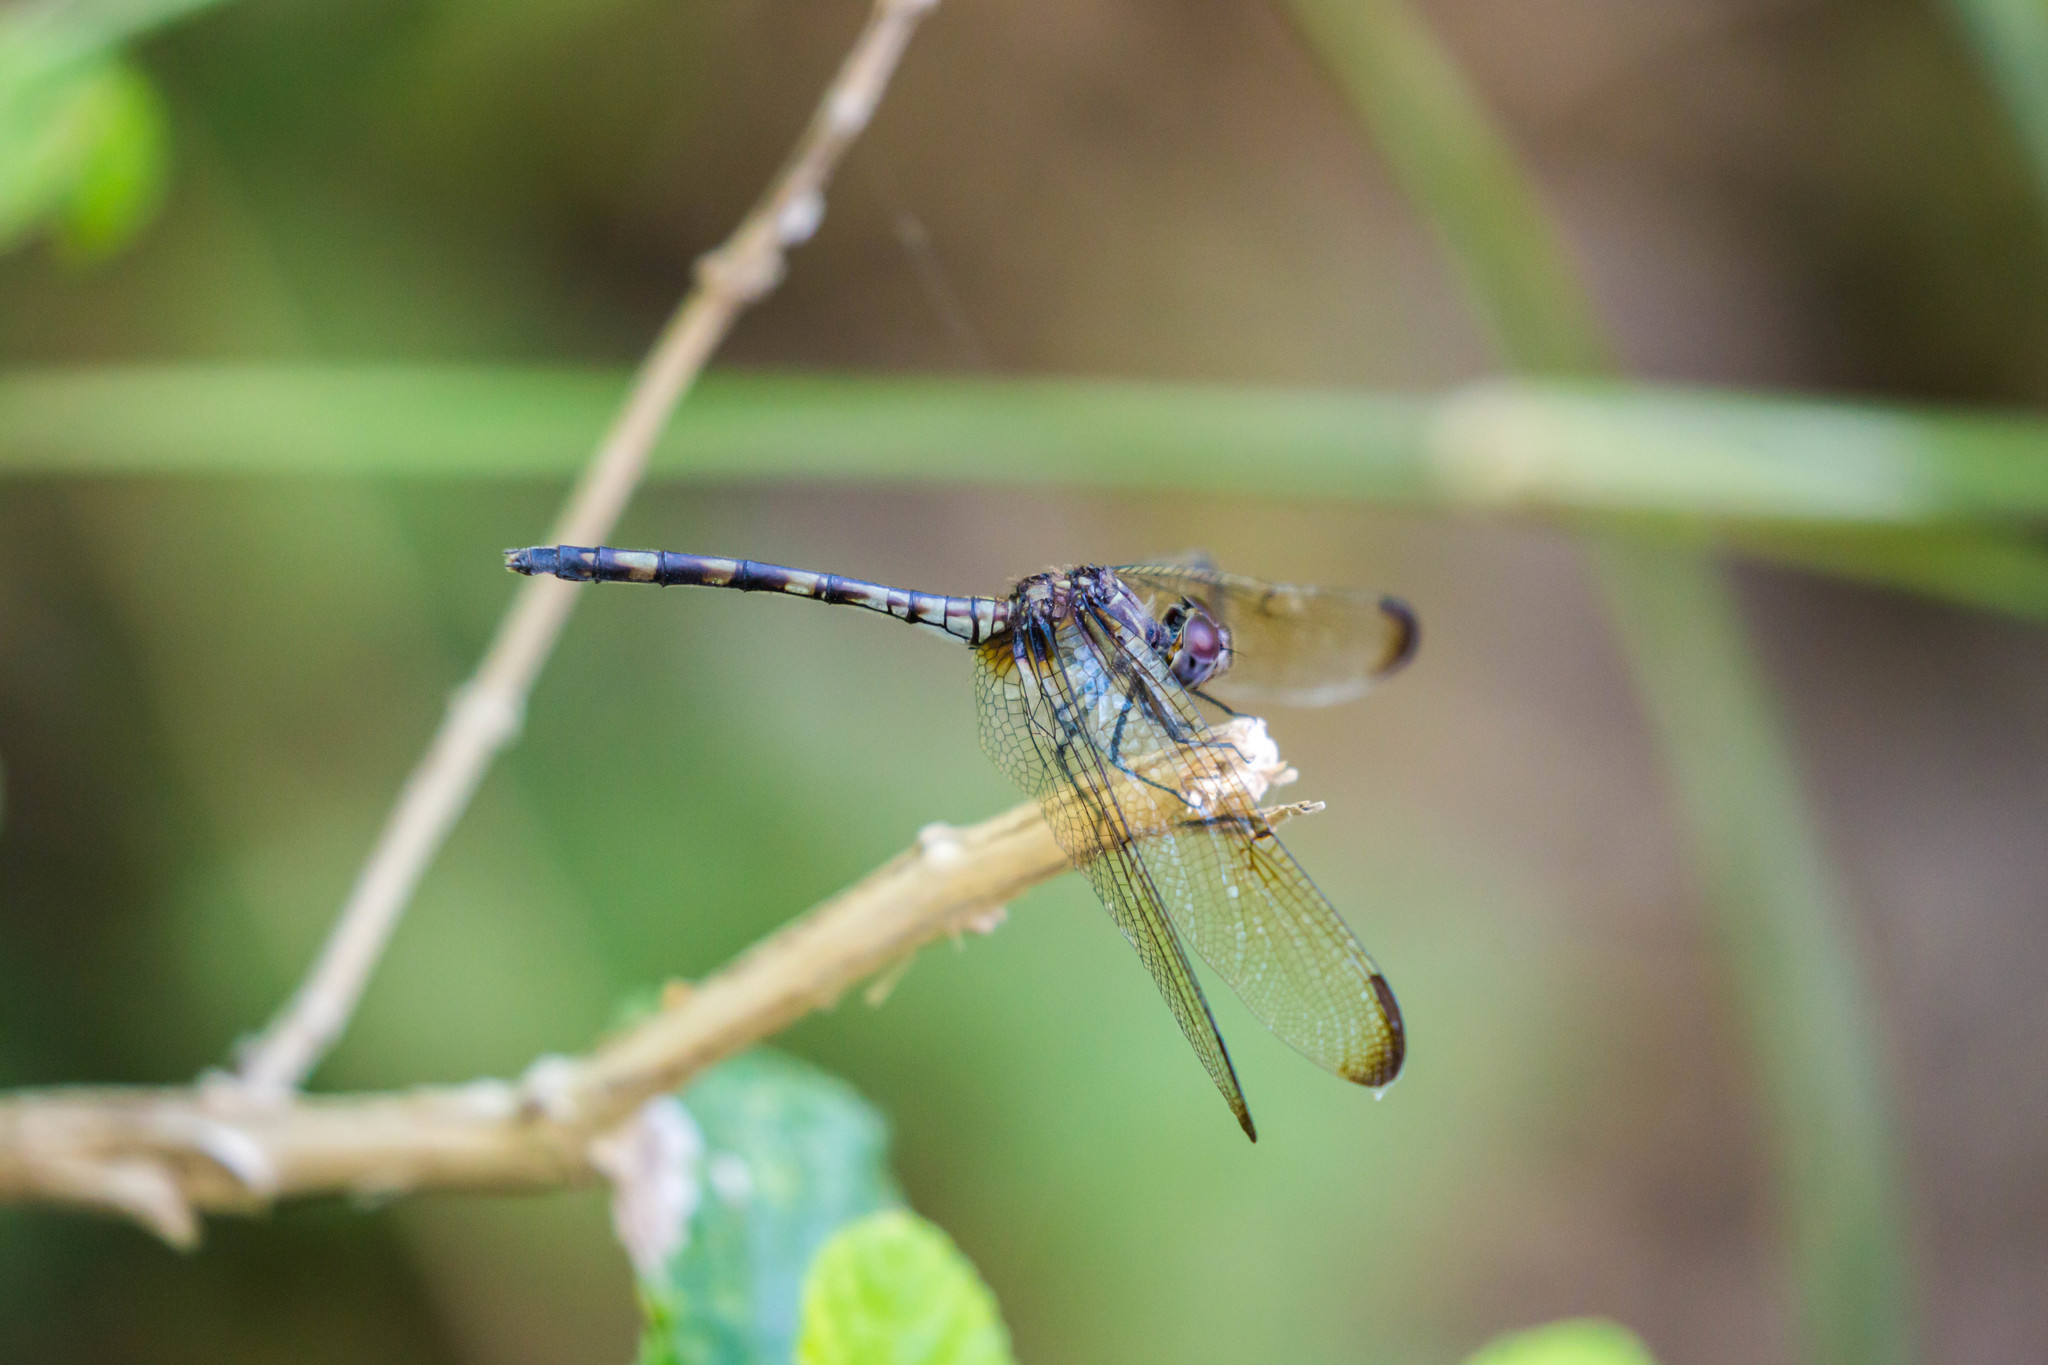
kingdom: Animalia
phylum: Arthropoda
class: Insecta
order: Odonata
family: Libellulidae
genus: Dythemis
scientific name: Dythemis nigrescens
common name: Black setwing
